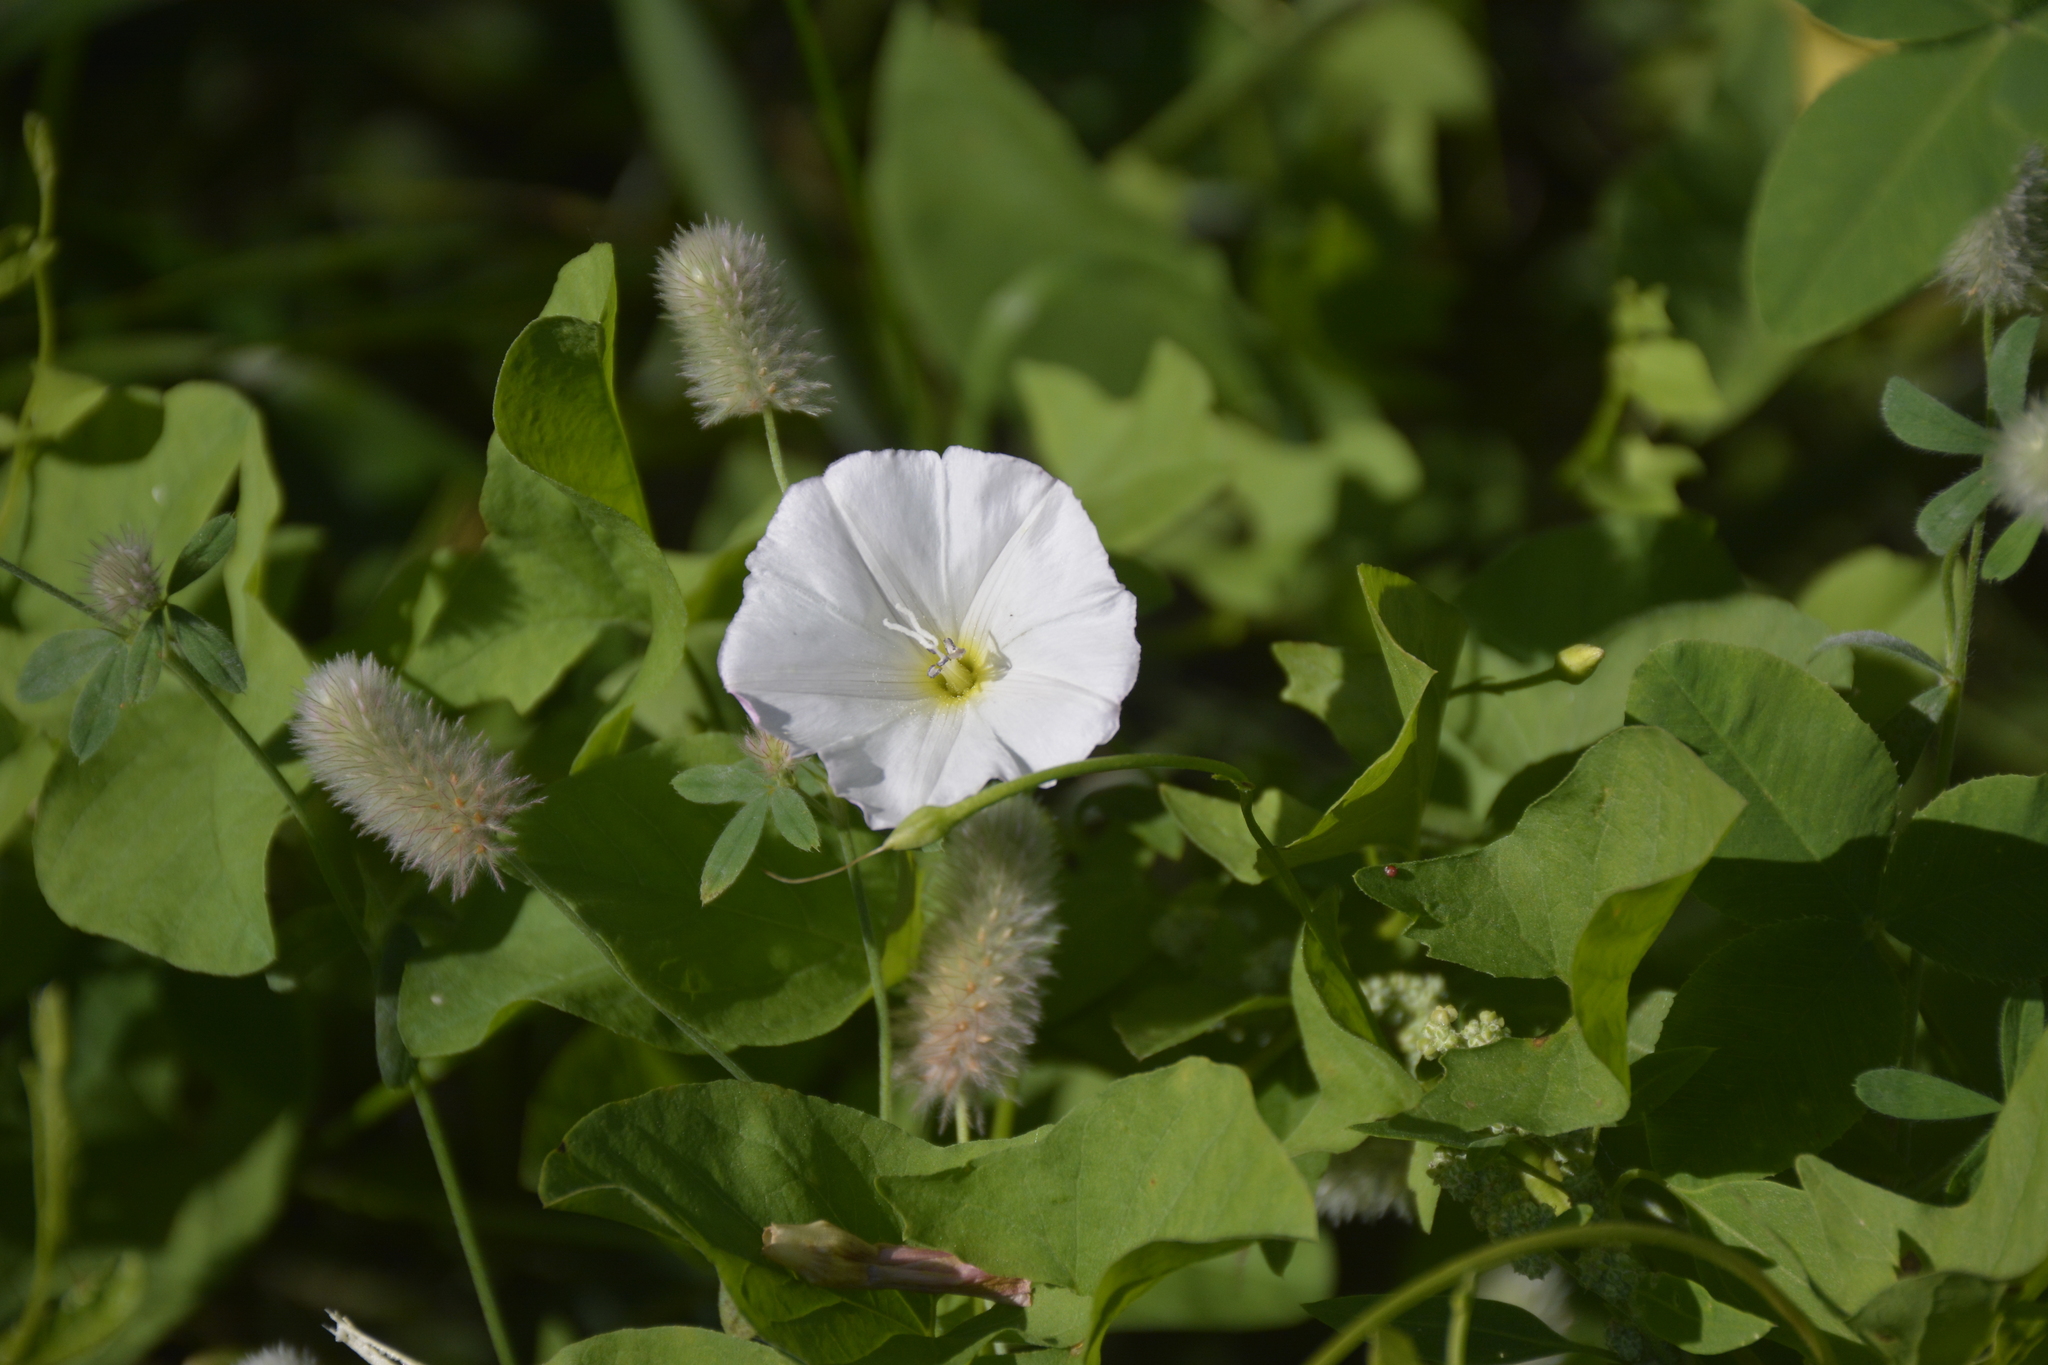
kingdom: Plantae
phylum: Tracheophyta
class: Magnoliopsida
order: Solanales
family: Convolvulaceae
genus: Convolvulus
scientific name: Convolvulus arvensis
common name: Field bindweed
